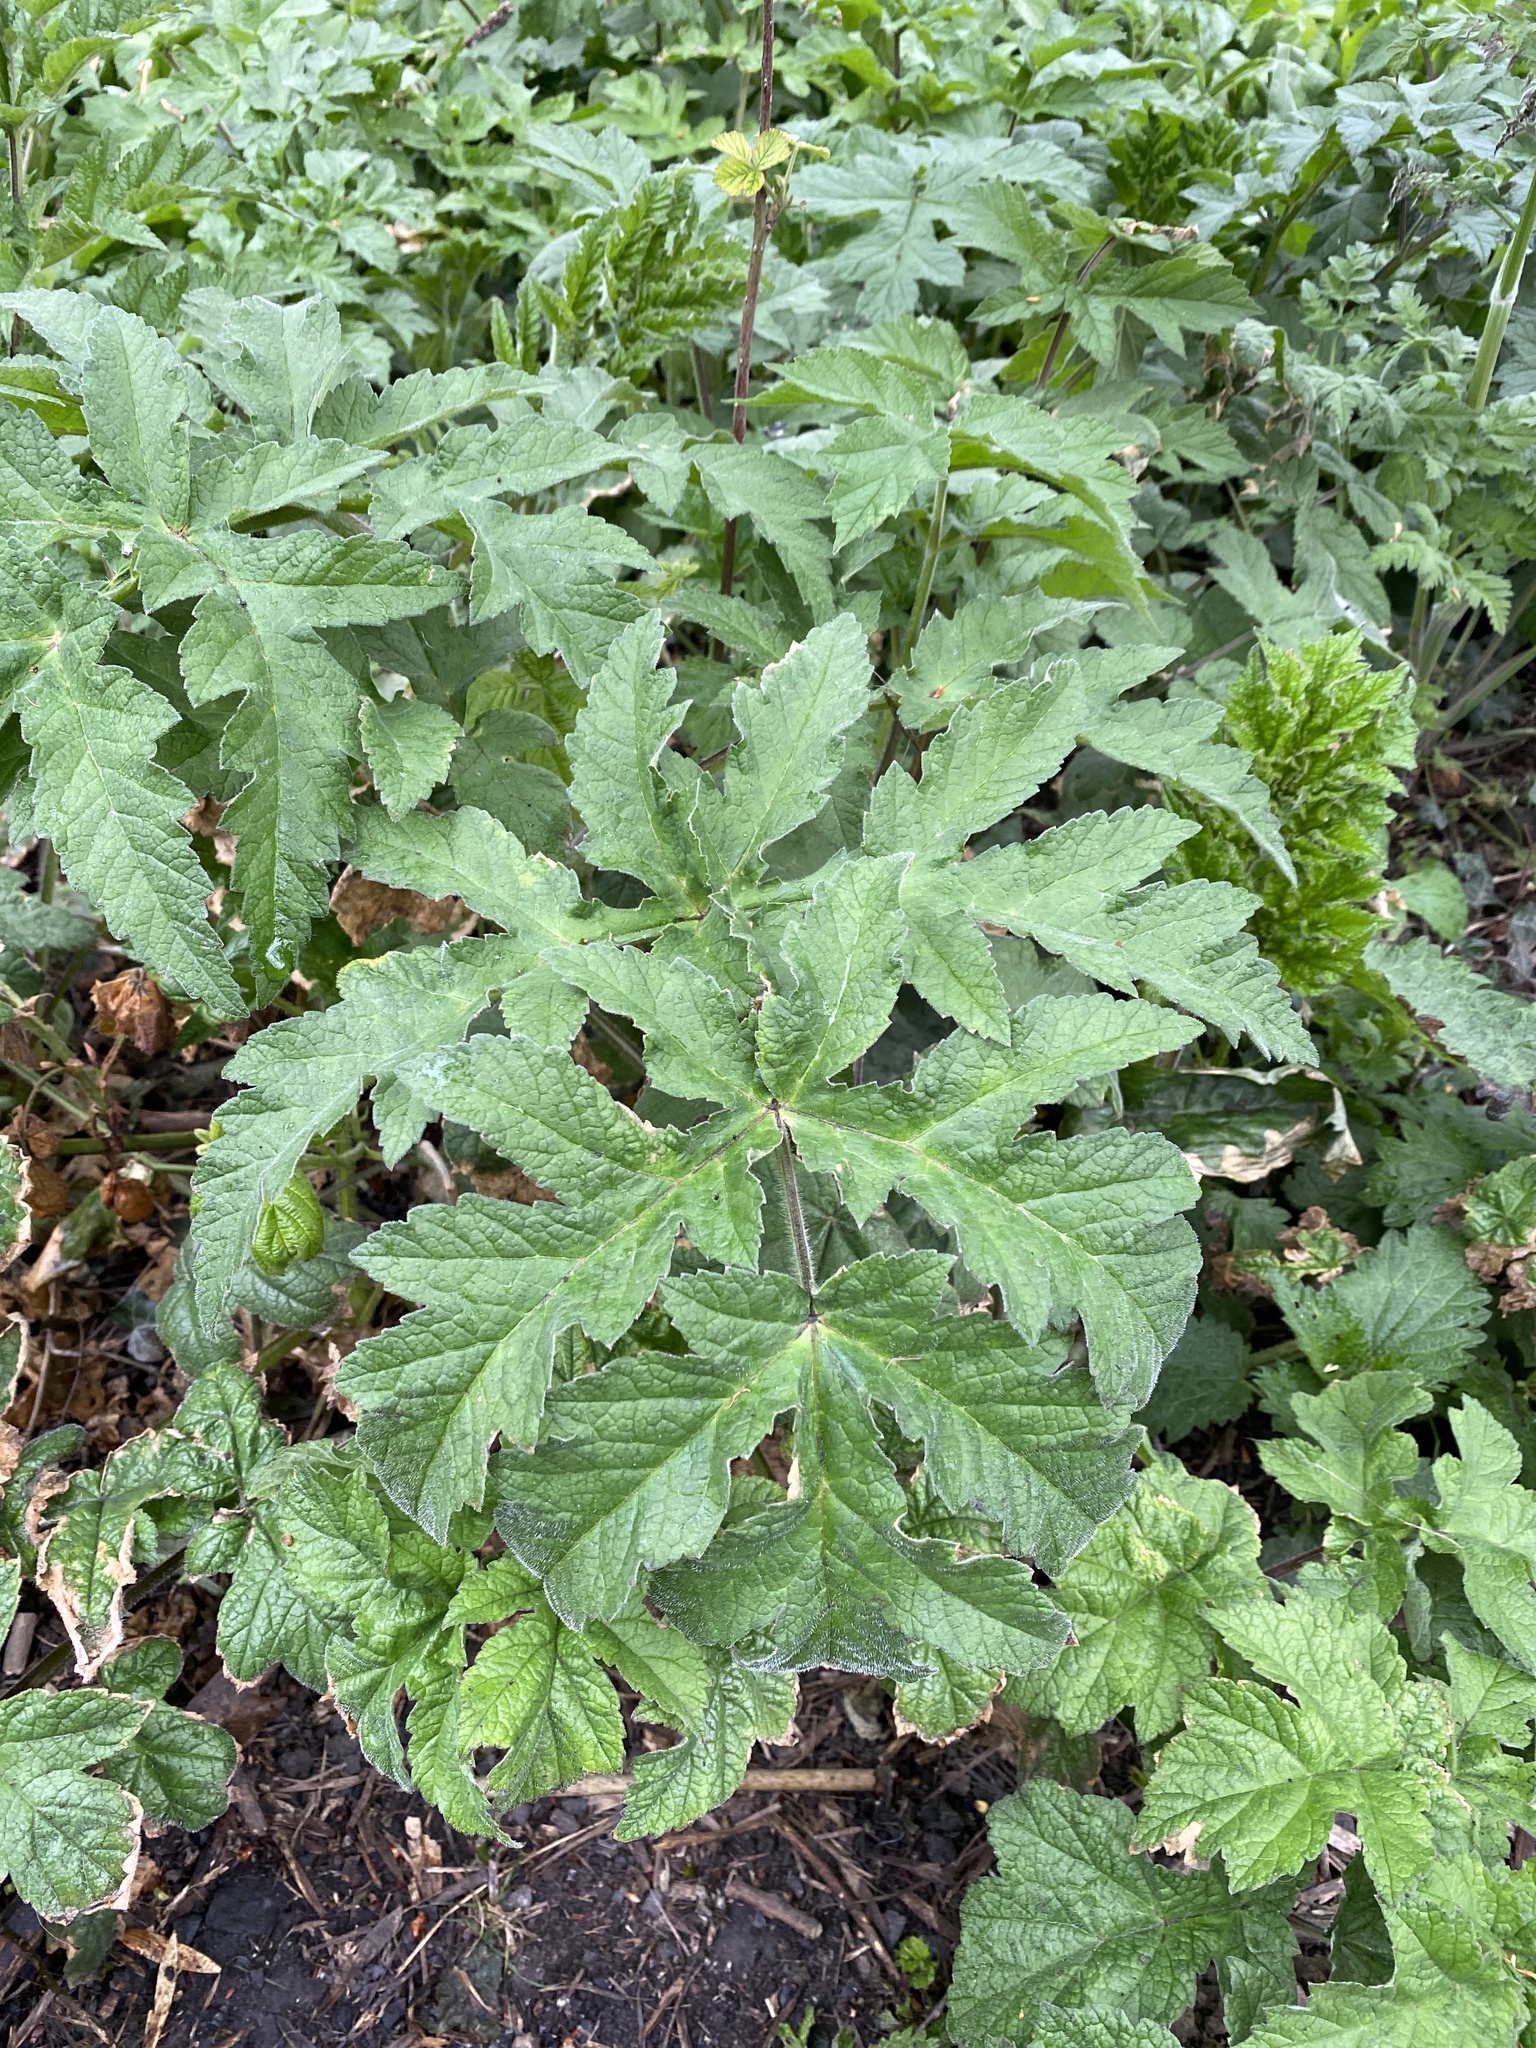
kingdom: Plantae
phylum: Tracheophyta
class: Magnoliopsida
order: Apiales
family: Apiaceae
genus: Heracleum
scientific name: Heracleum sphondylium
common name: Hogweed
